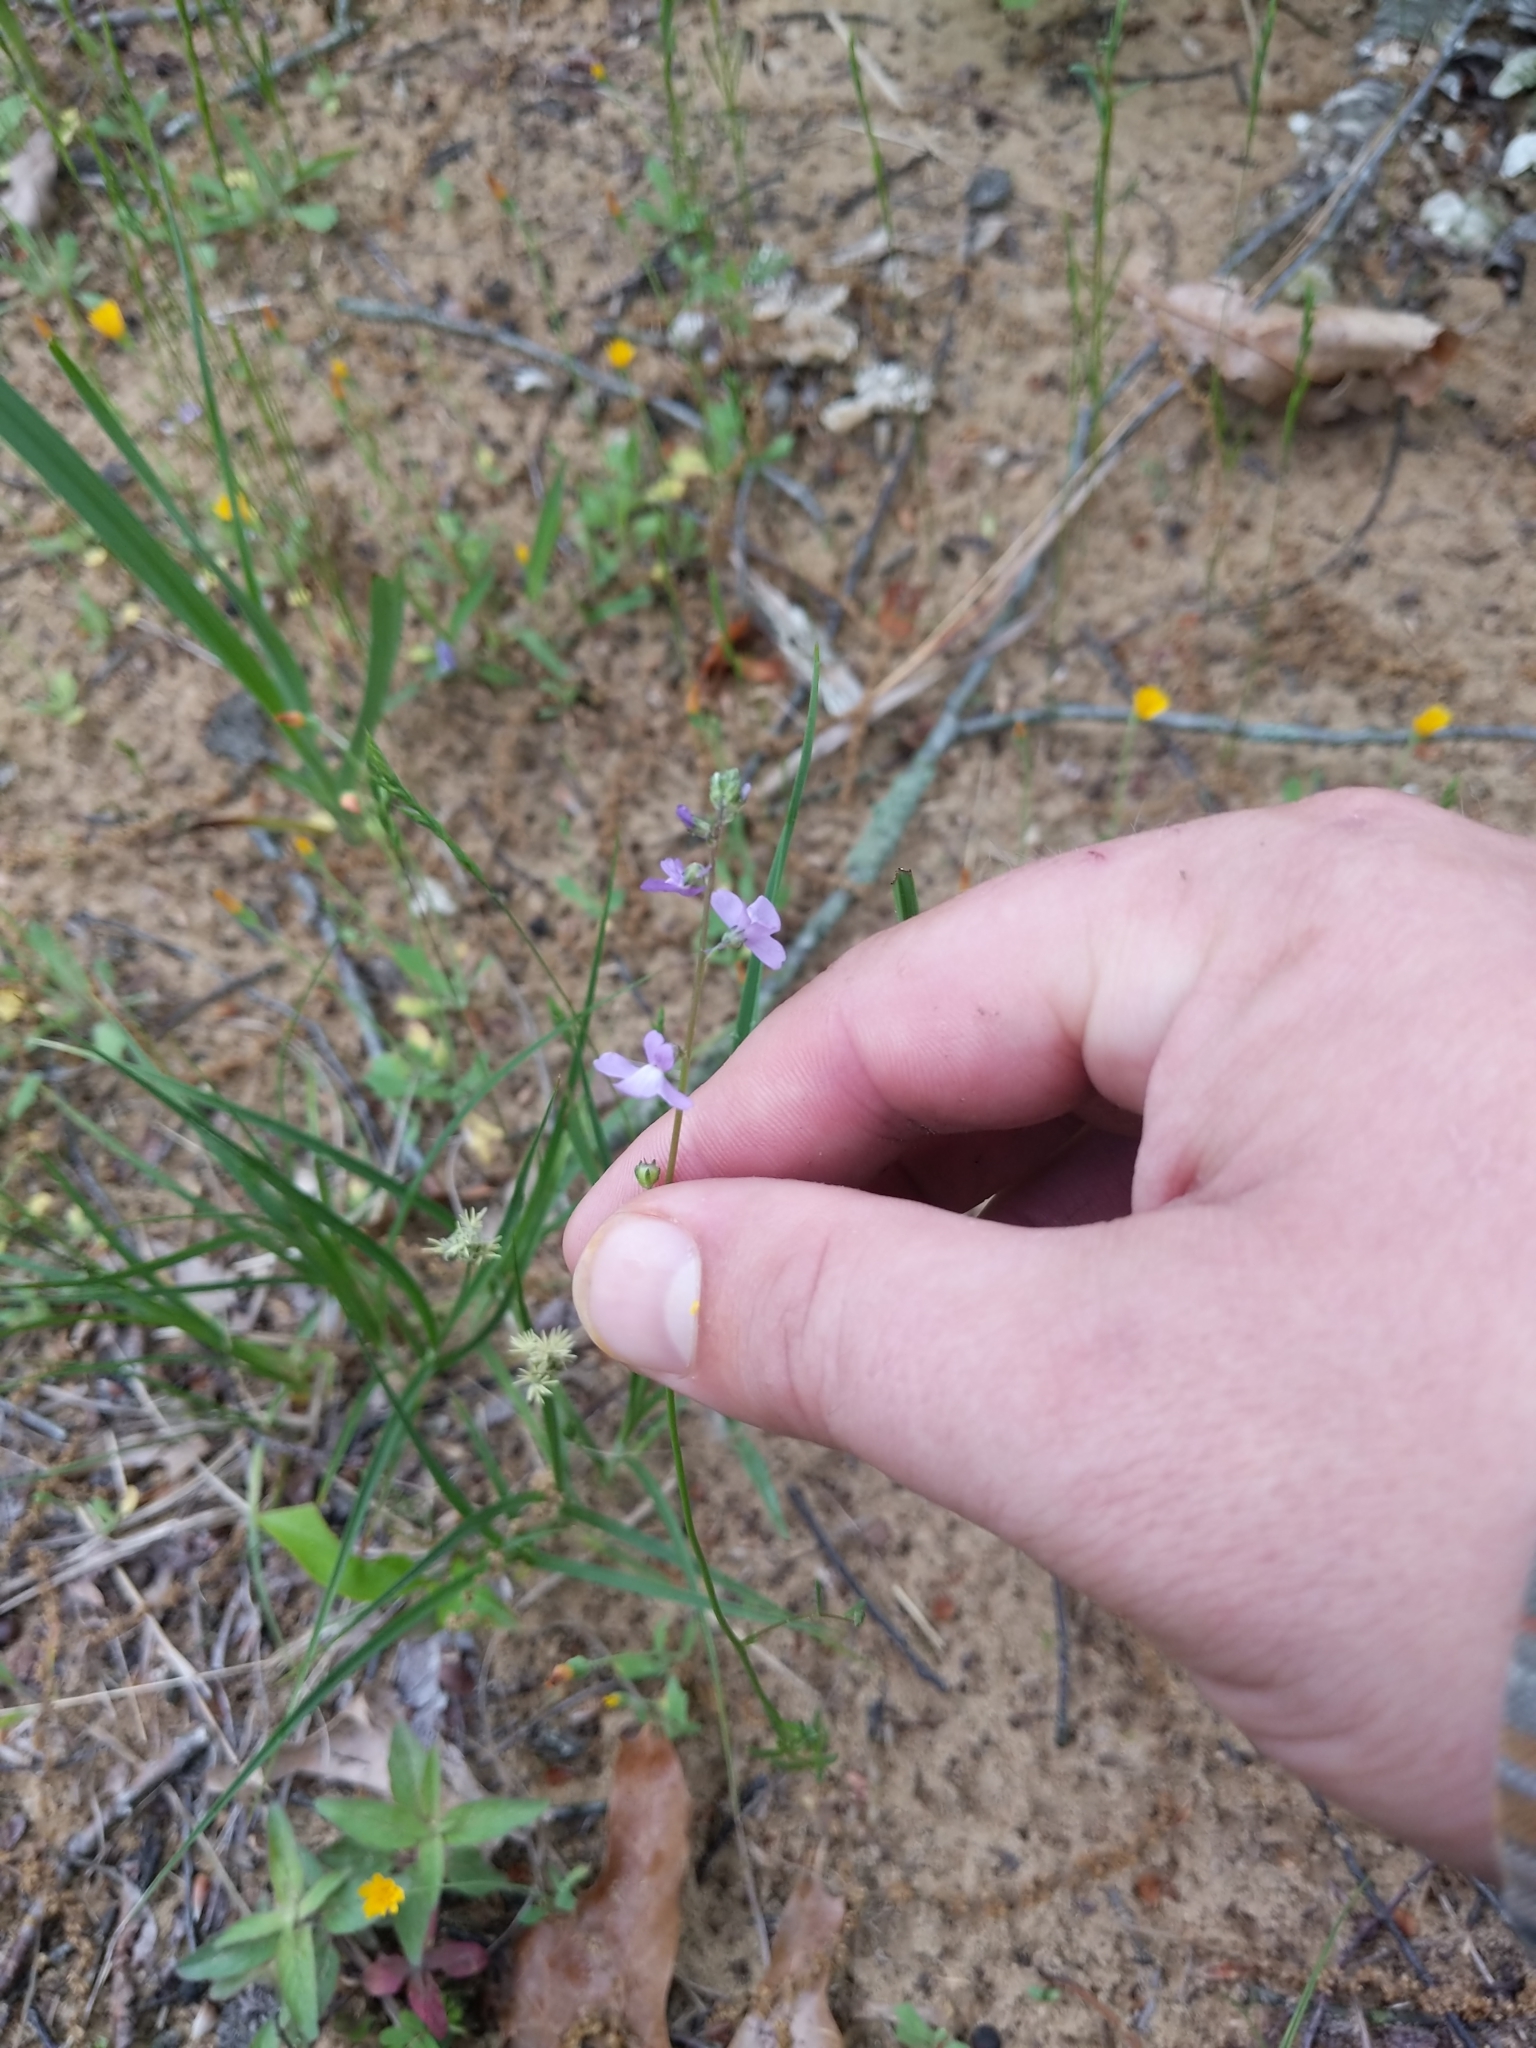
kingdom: Plantae
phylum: Tracheophyta
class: Magnoliopsida
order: Lamiales
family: Plantaginaceae
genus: Nuttallanthus
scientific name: Nuttallanthus canadensis
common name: Blue toadflax
